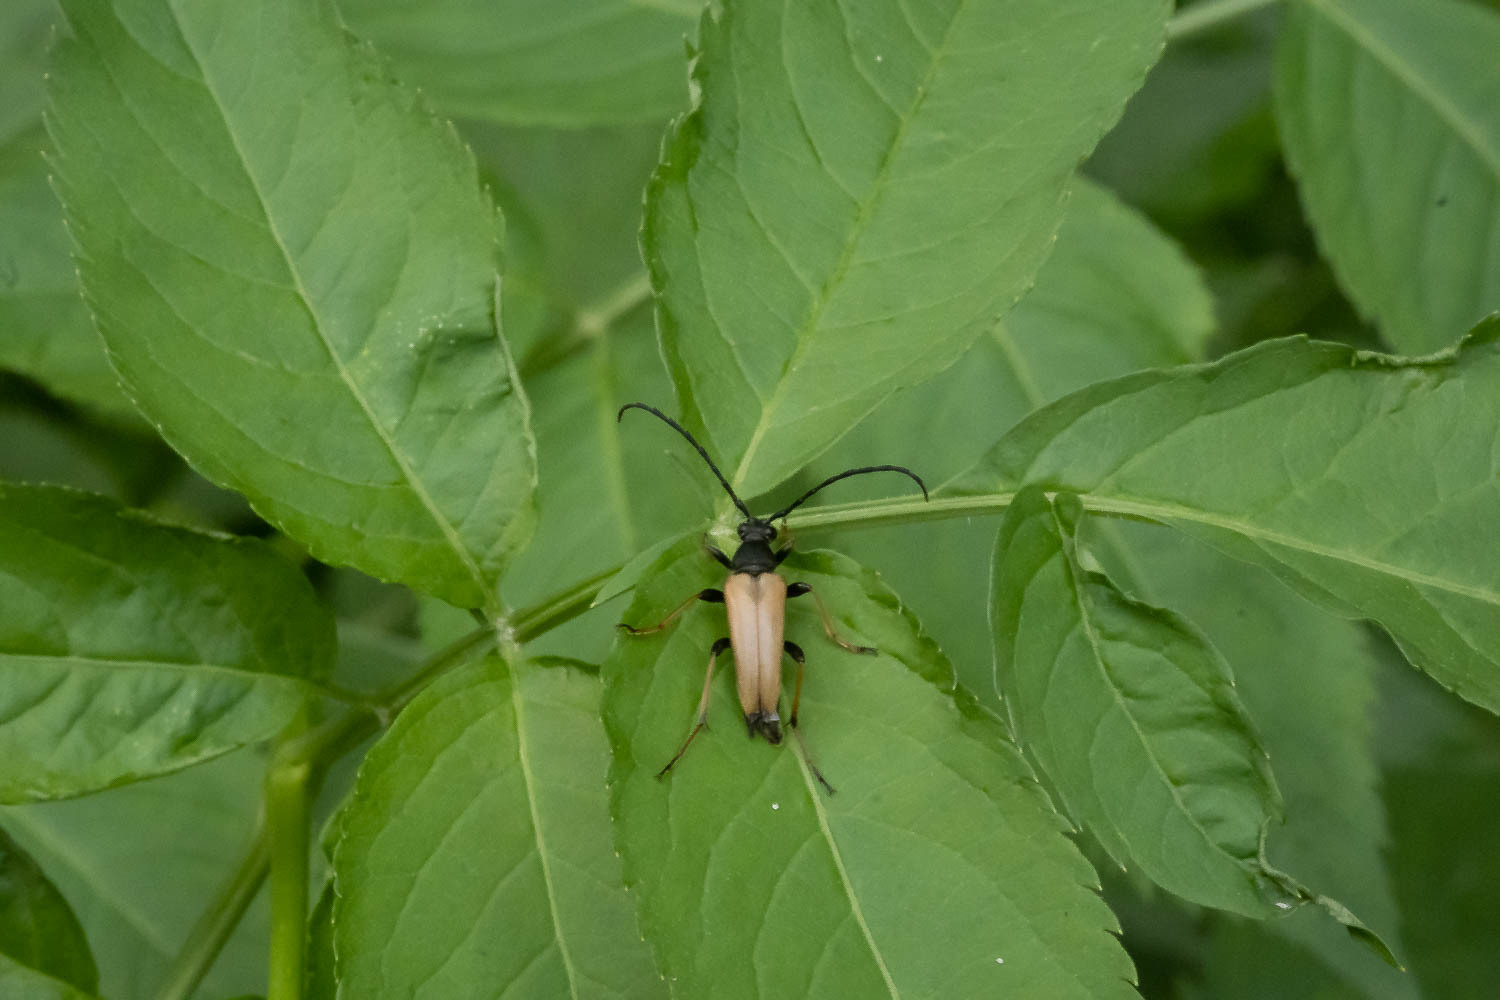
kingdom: Animalia
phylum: Arthropoda
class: Insecta
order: Coleoptera
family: Cerambycidae
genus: Stictoleptura
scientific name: Stictoleptura rubra
